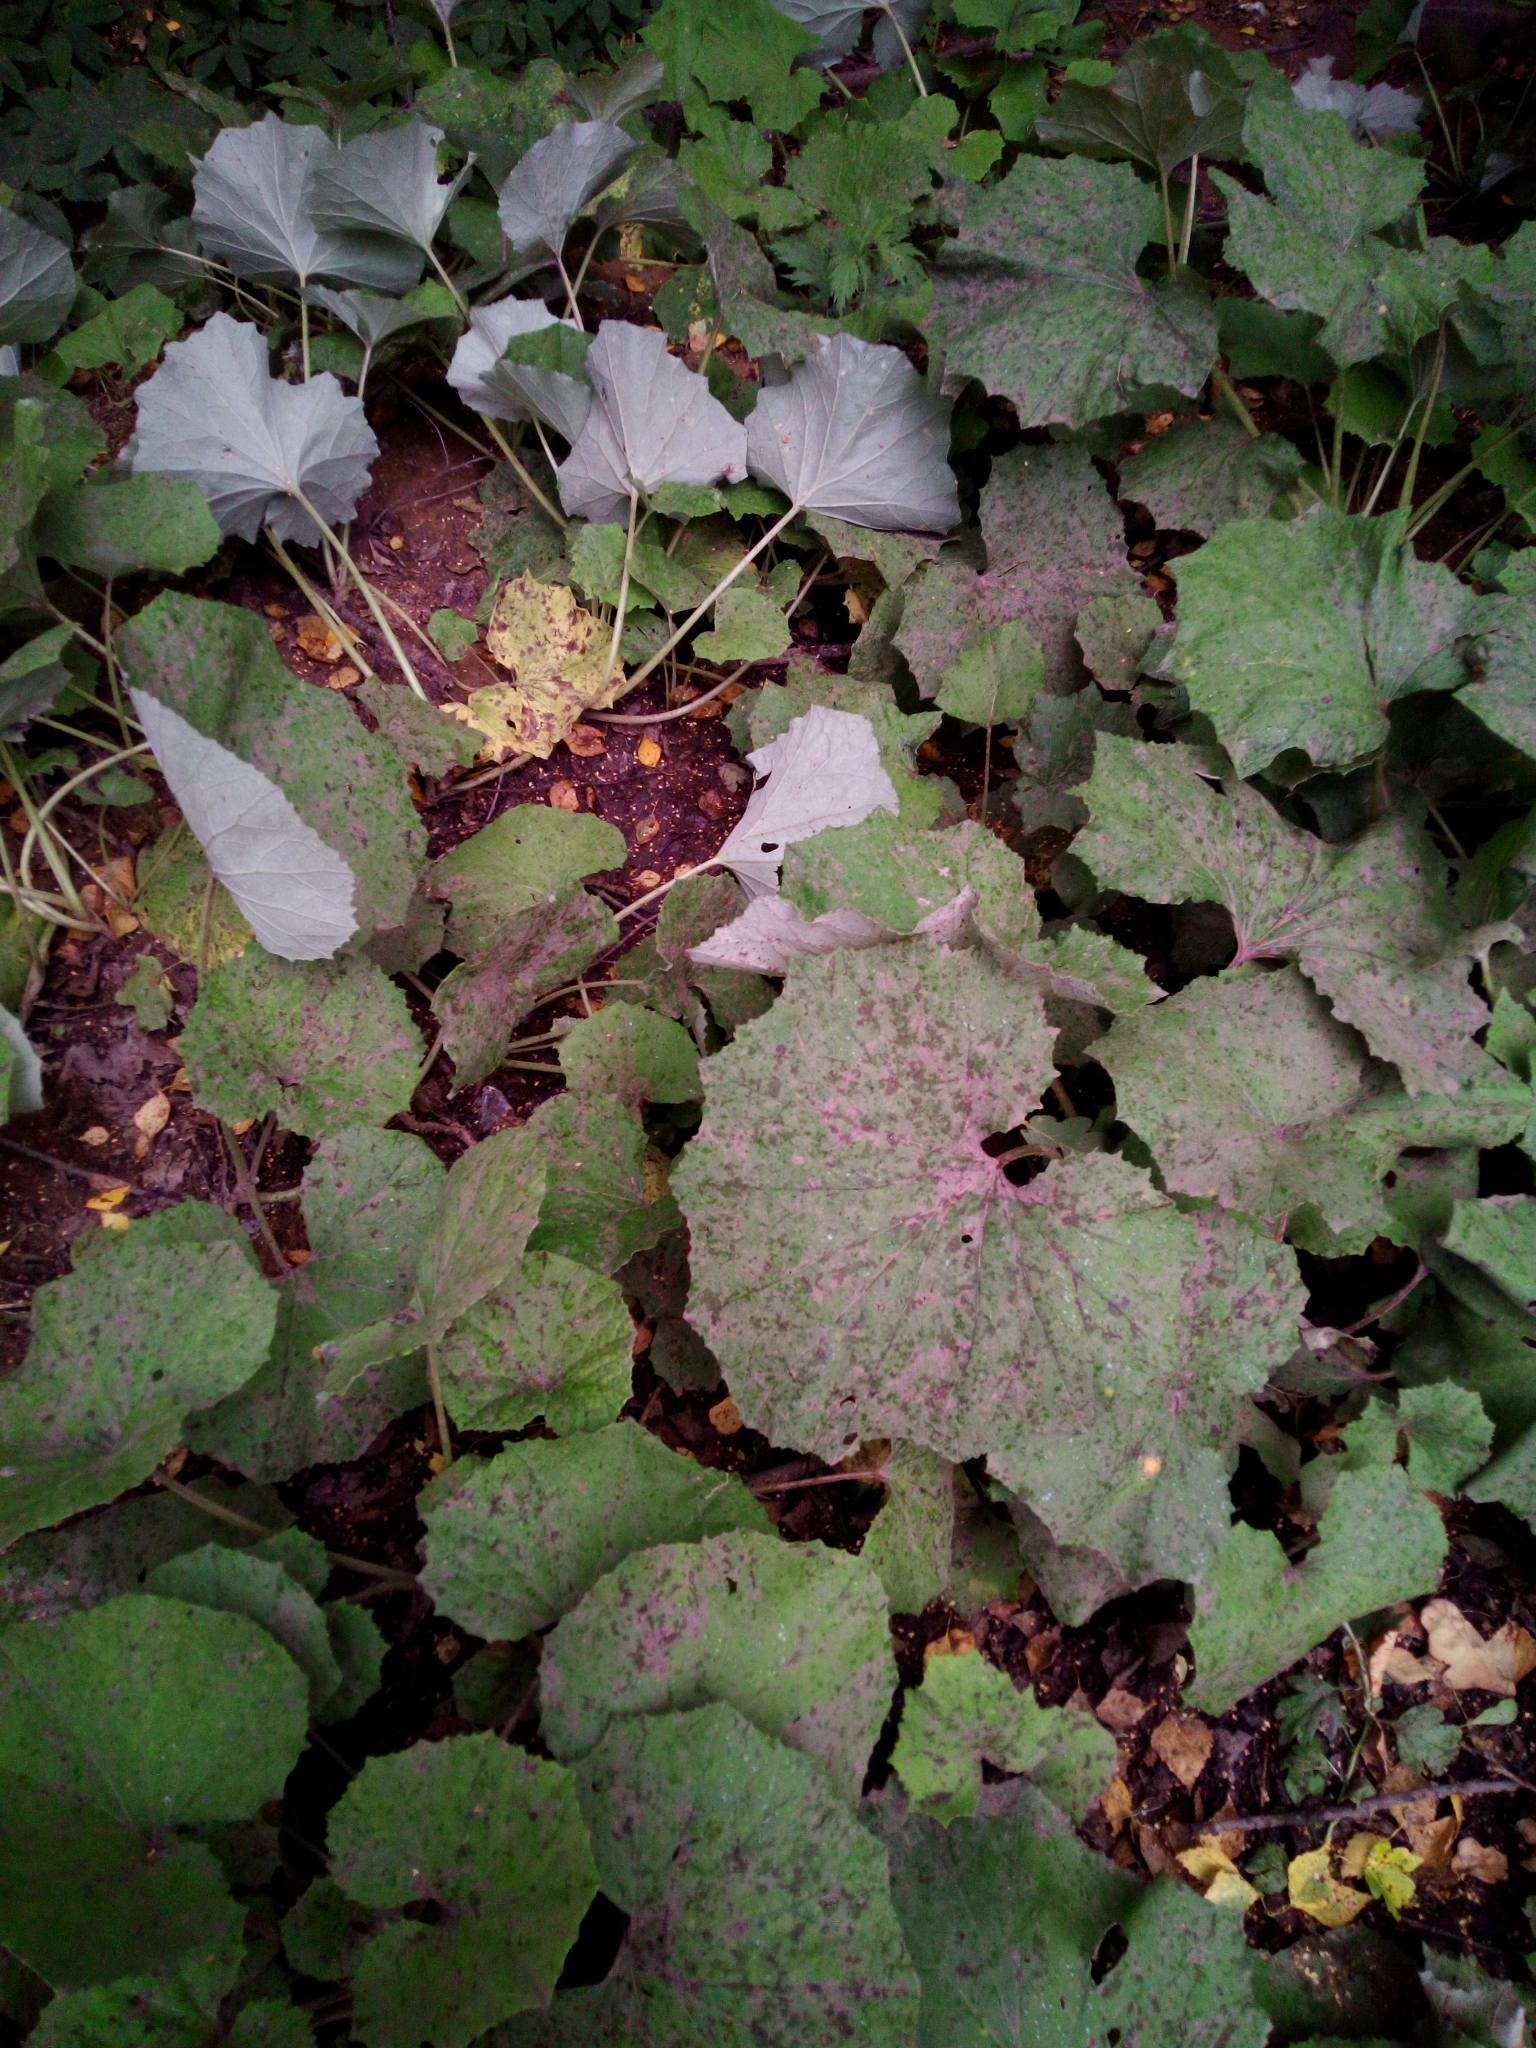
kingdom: Plantae
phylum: Tracheophyta
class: Magnoliopsida
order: Asterales
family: Asteraceae
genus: Tussilago
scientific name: Tussilago farfara
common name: Coltsfoot
